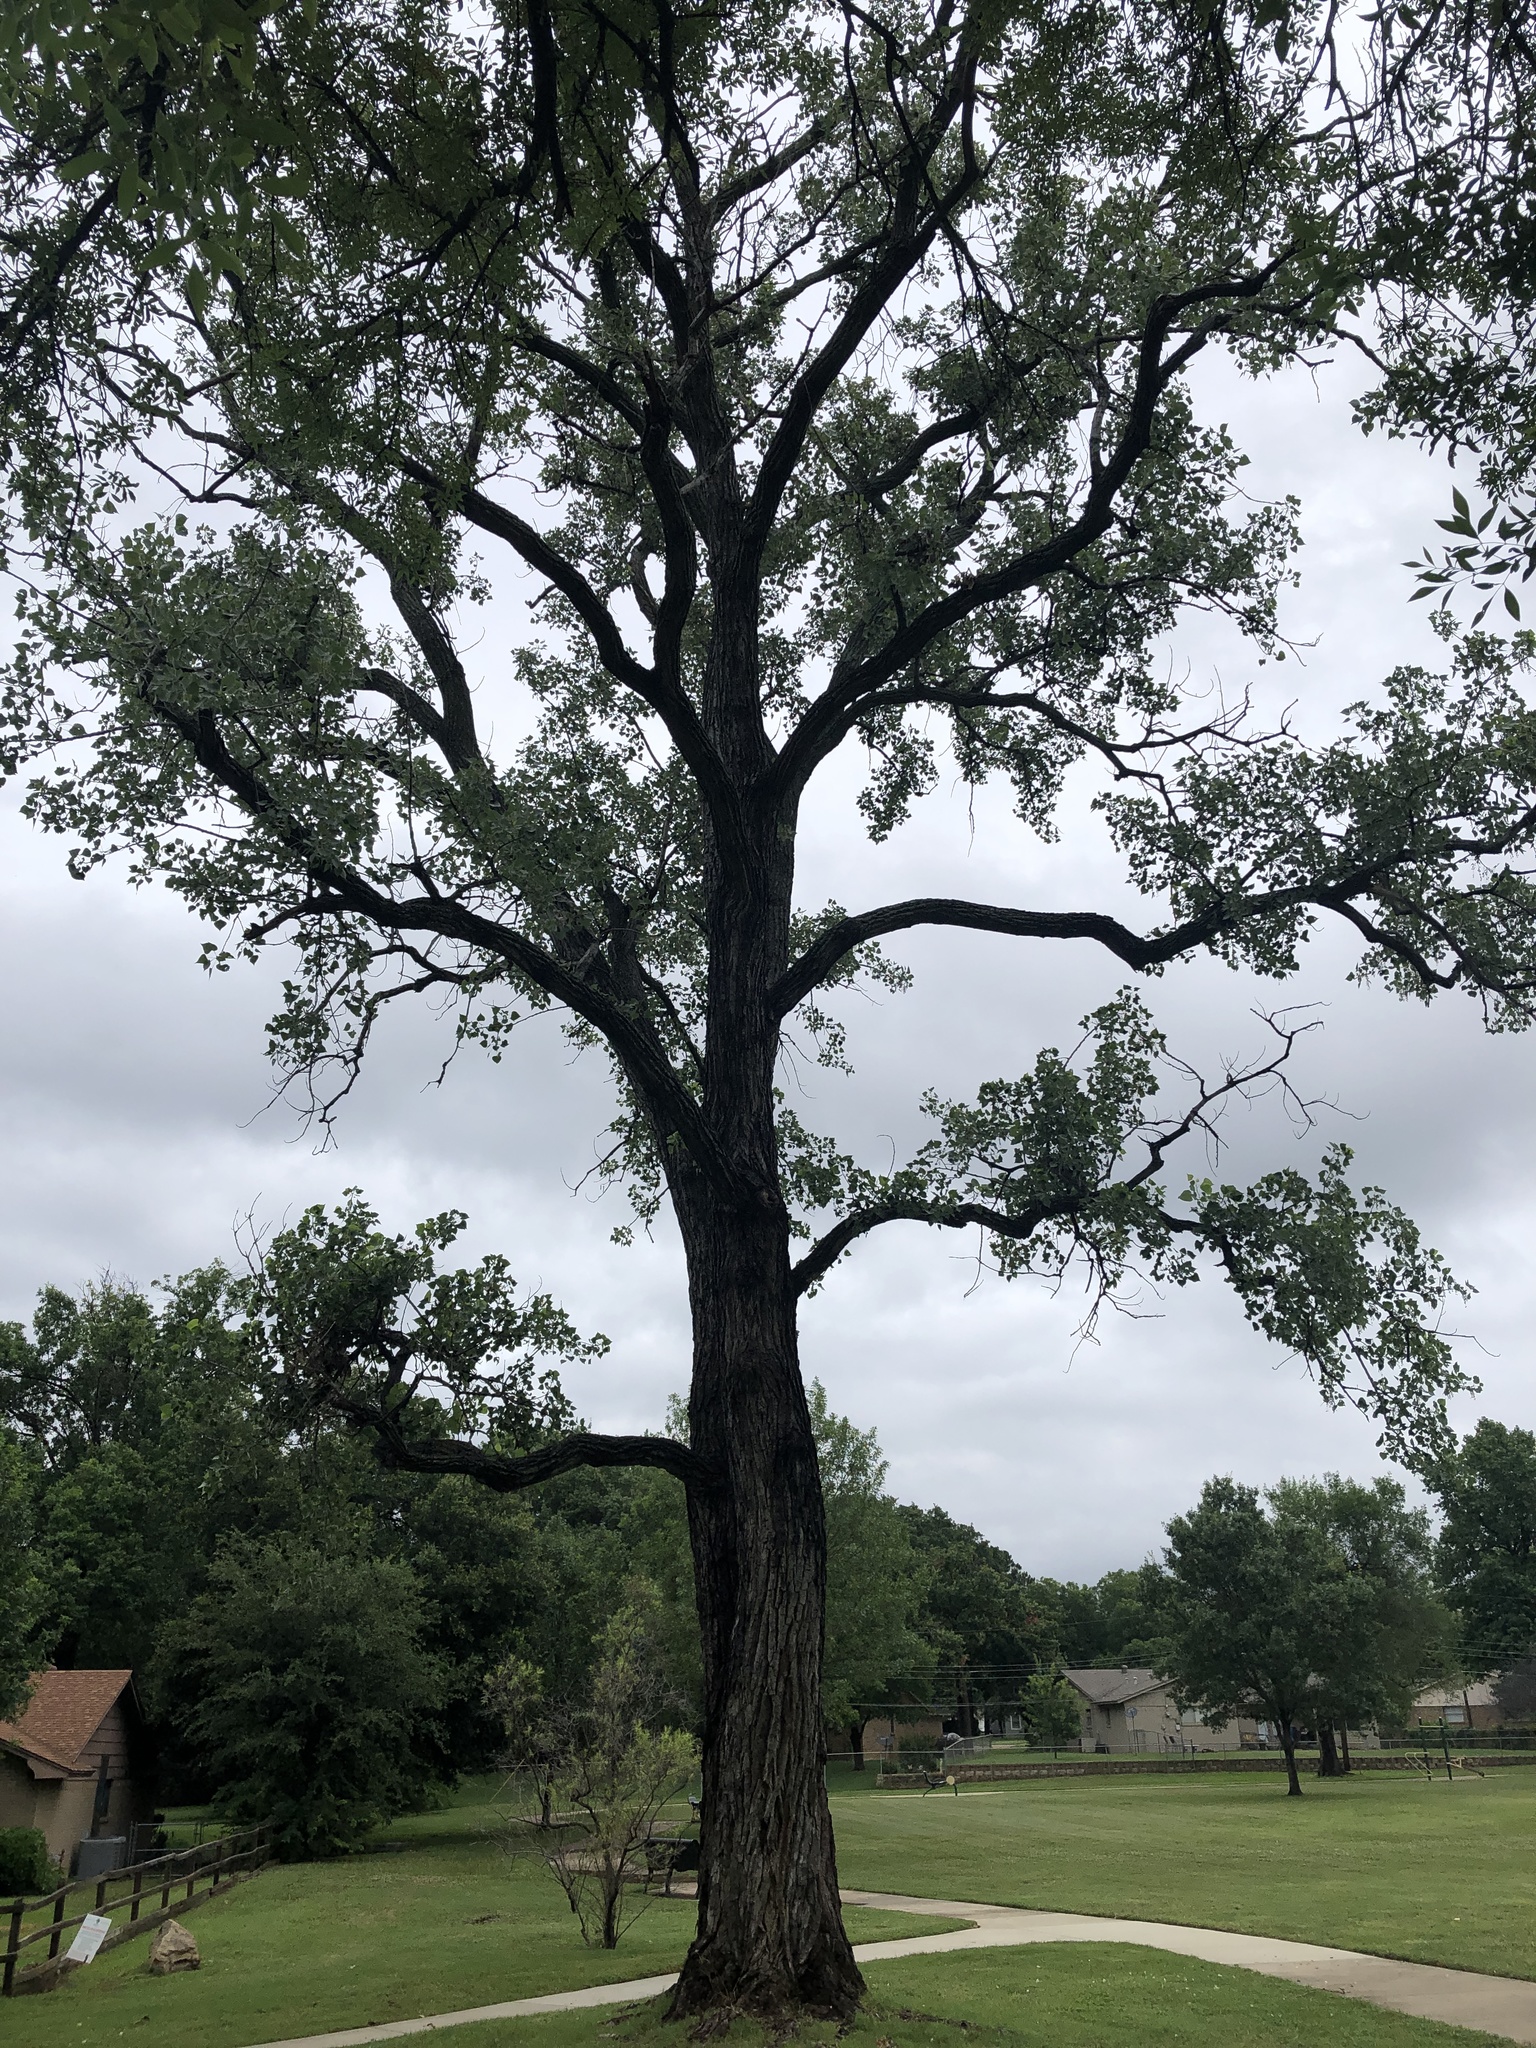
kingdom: Plantae
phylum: Tracheophyta
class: Magnoliopsida
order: Malpighiales
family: Salicaceae
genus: Populus
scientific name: Populus deltoides
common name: Eastern cottonwood
